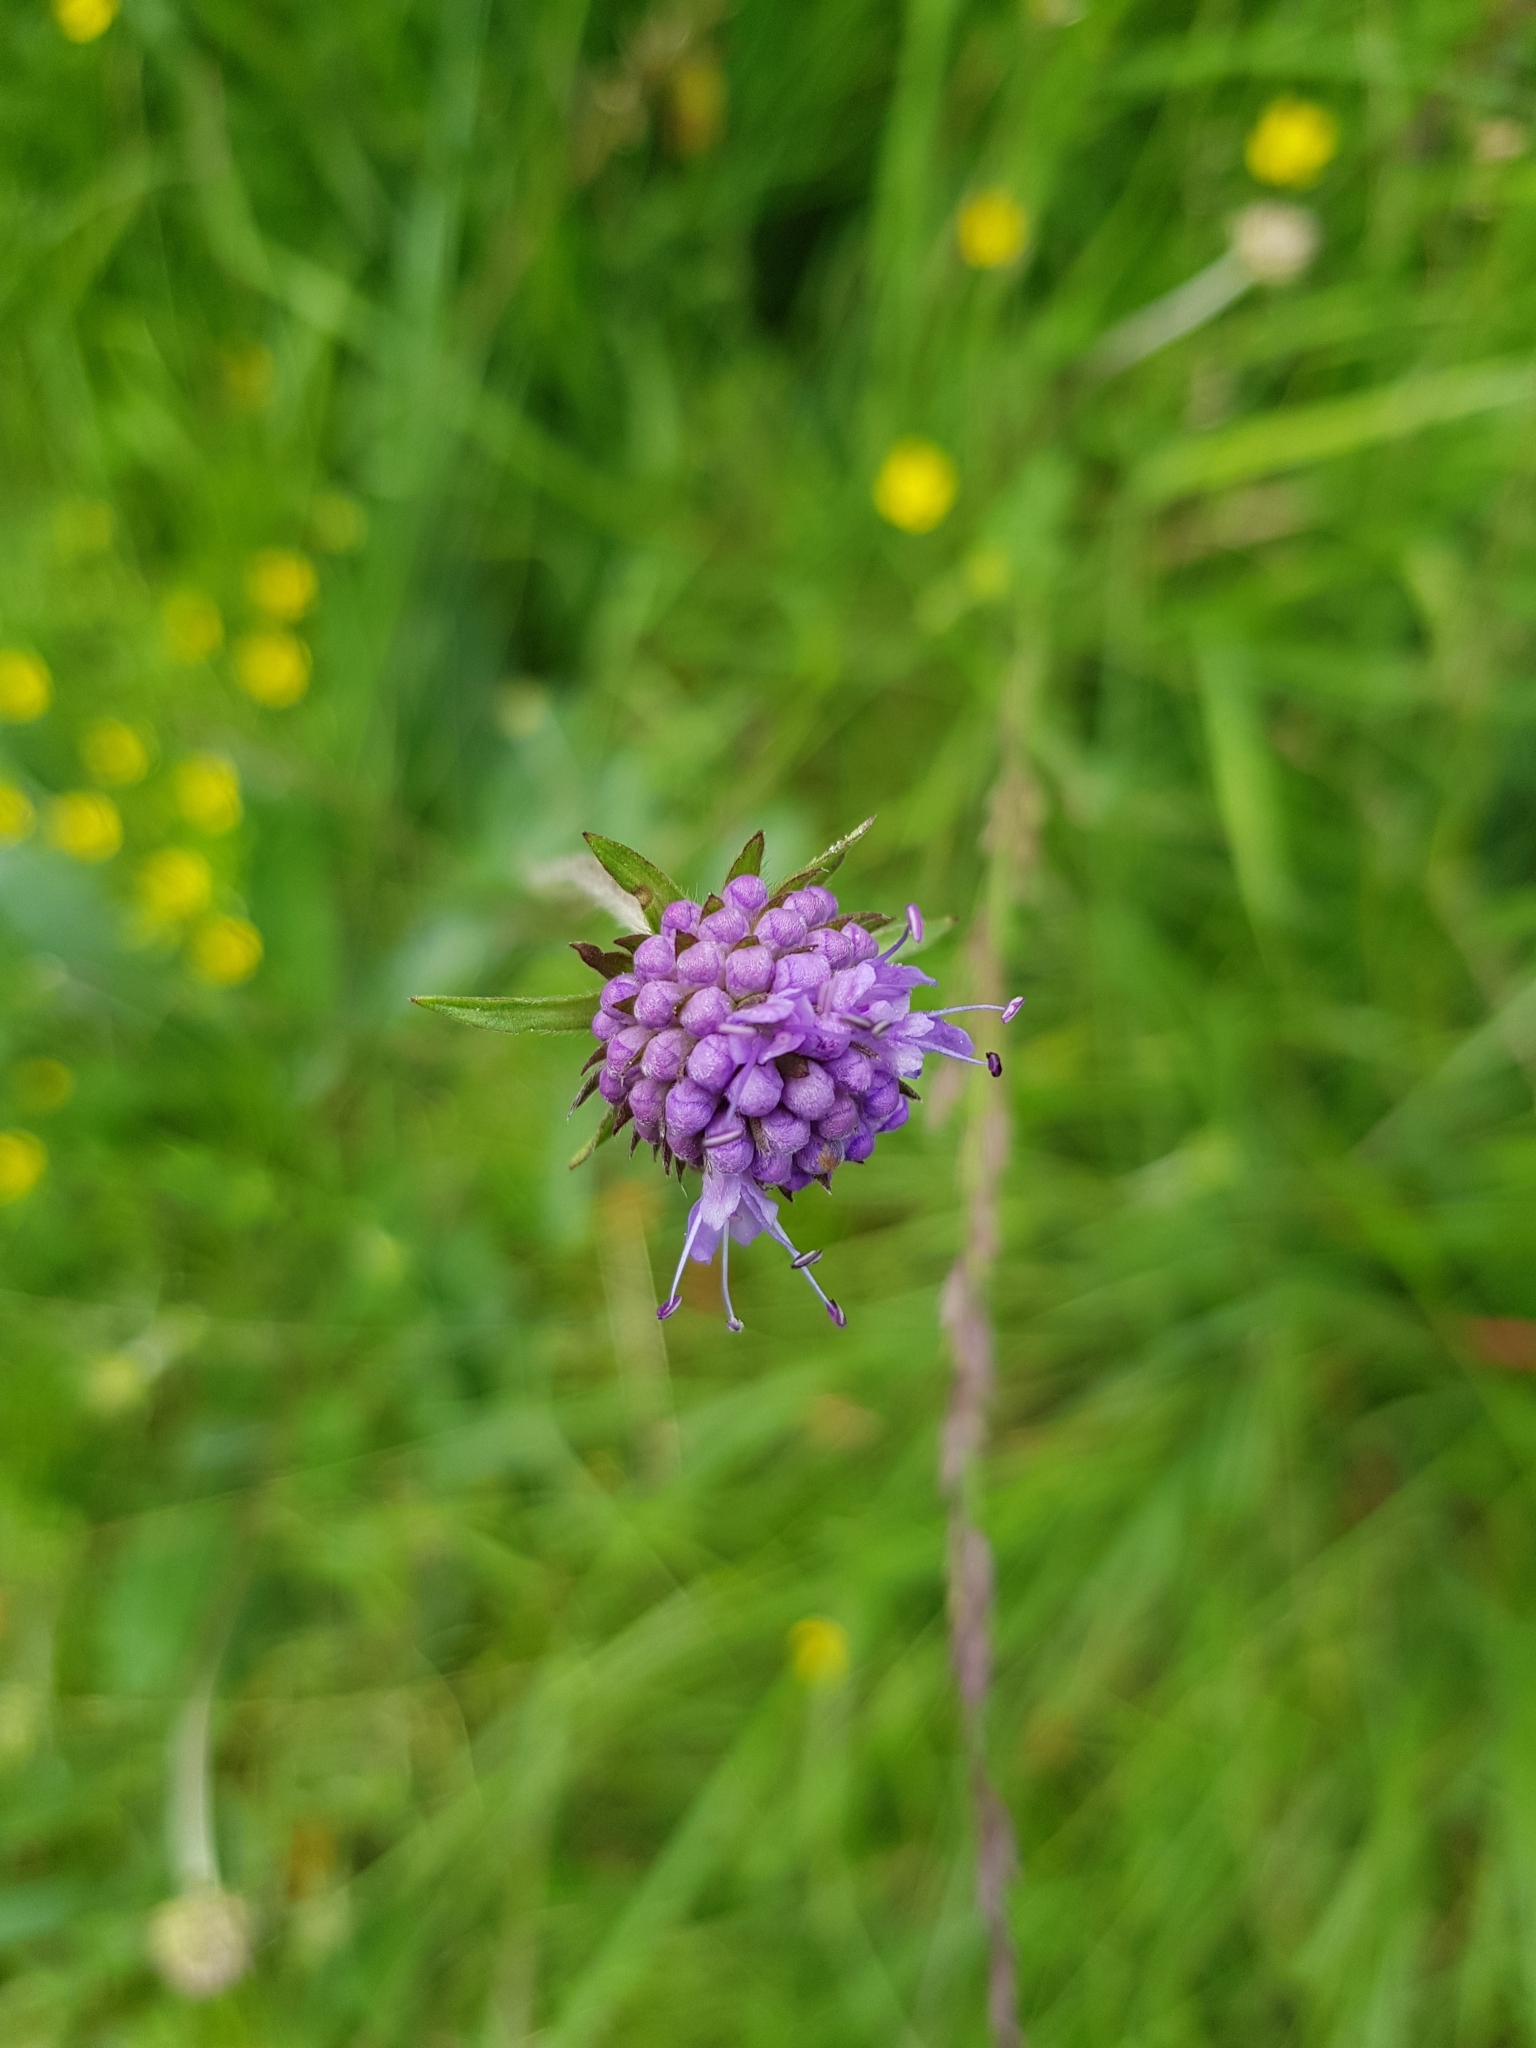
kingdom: Plantae
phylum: Tracheophyta
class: Magnoliopsida
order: Dipsacales
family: Caprifoliaceae
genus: Succisa
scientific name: Succisa pratensis
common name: Devil's-bit
